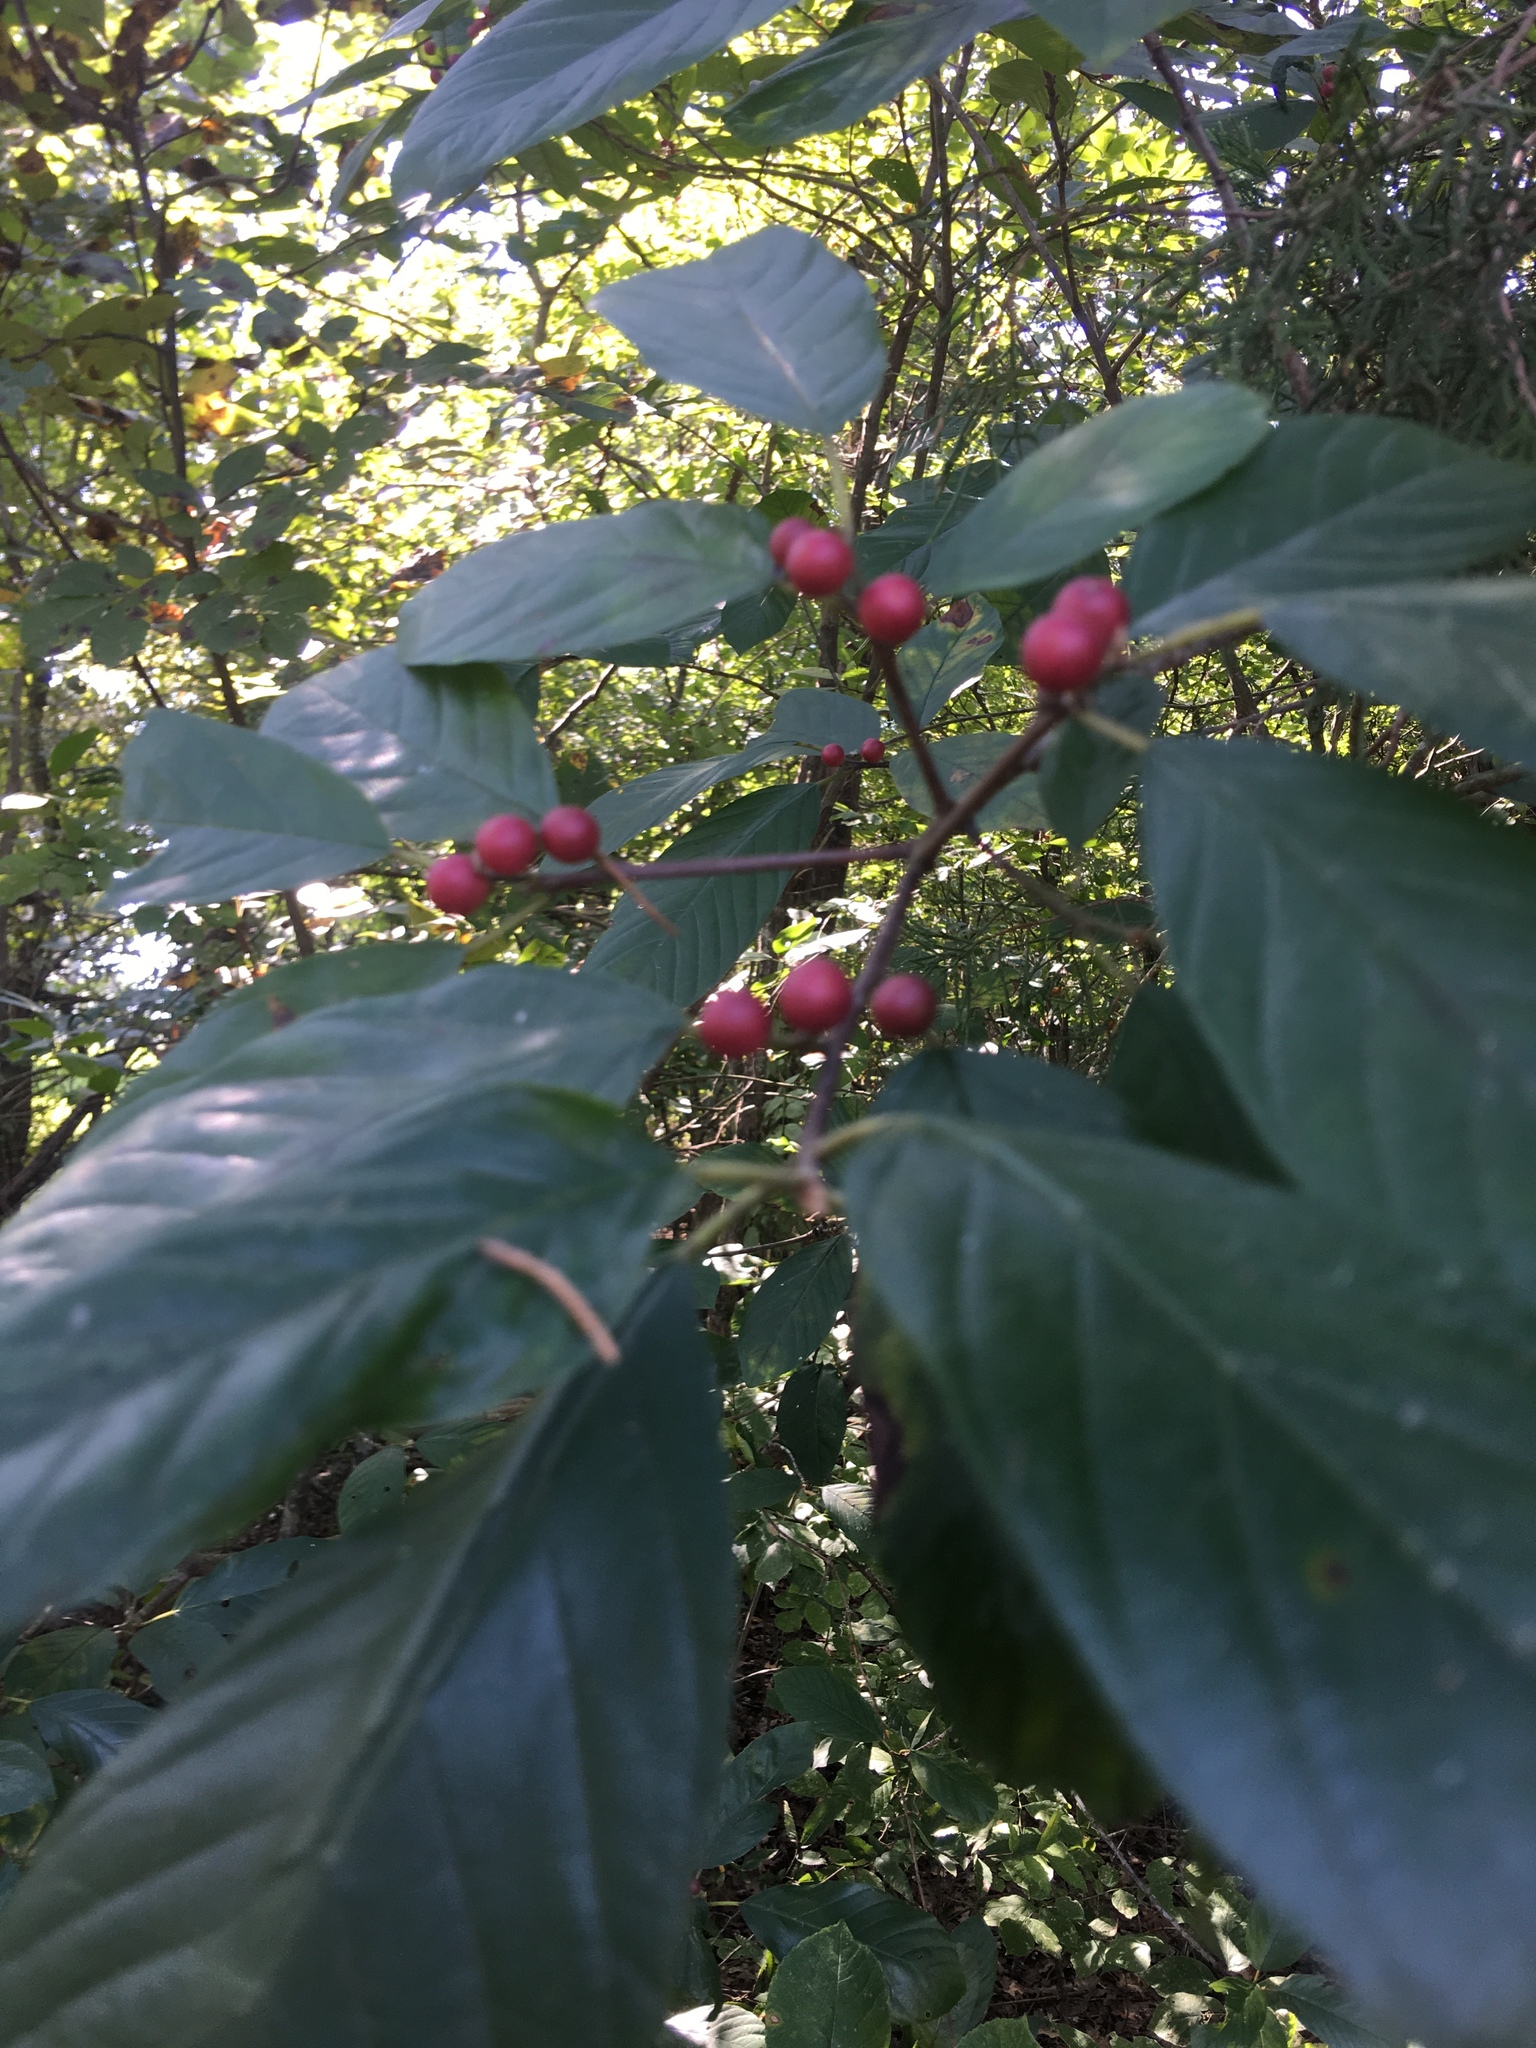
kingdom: Plantae
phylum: Tracheophyta
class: Magnoliopsida
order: Rosales
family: Rhamnaceae
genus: Frangula
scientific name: Frangula caroliniana
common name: Carolina buckthorn
